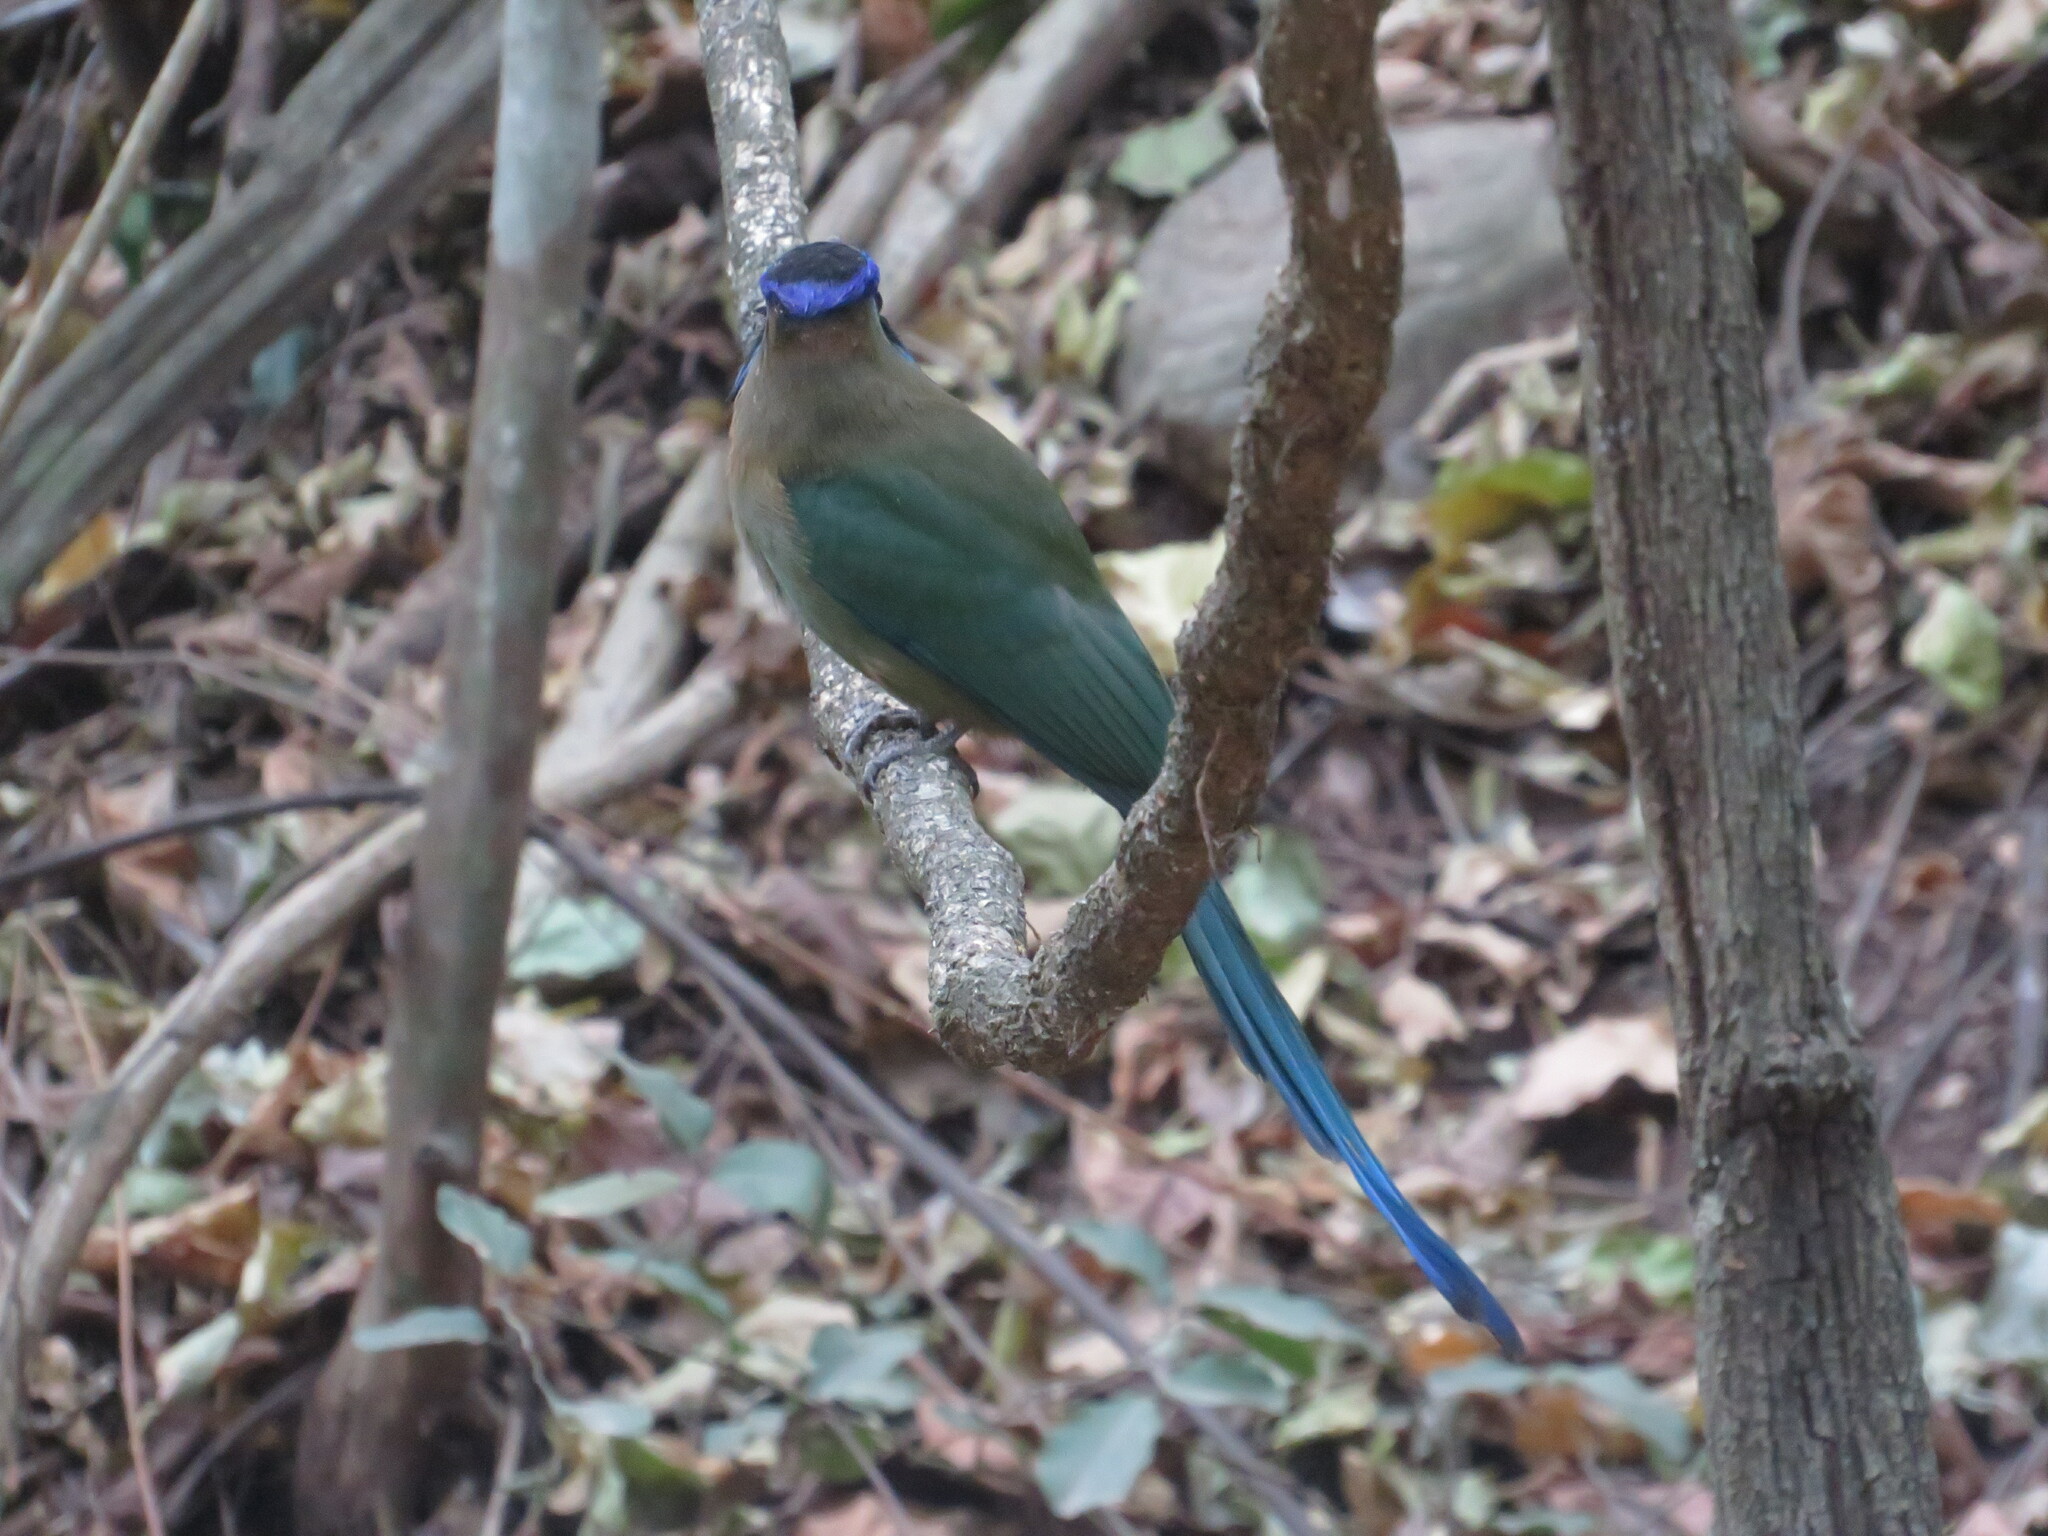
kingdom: Animalia
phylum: Chordata
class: Aves
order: Coraciiformes
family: Momotidae
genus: Momotus
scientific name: Momotus momota
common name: Amazonian motmot
